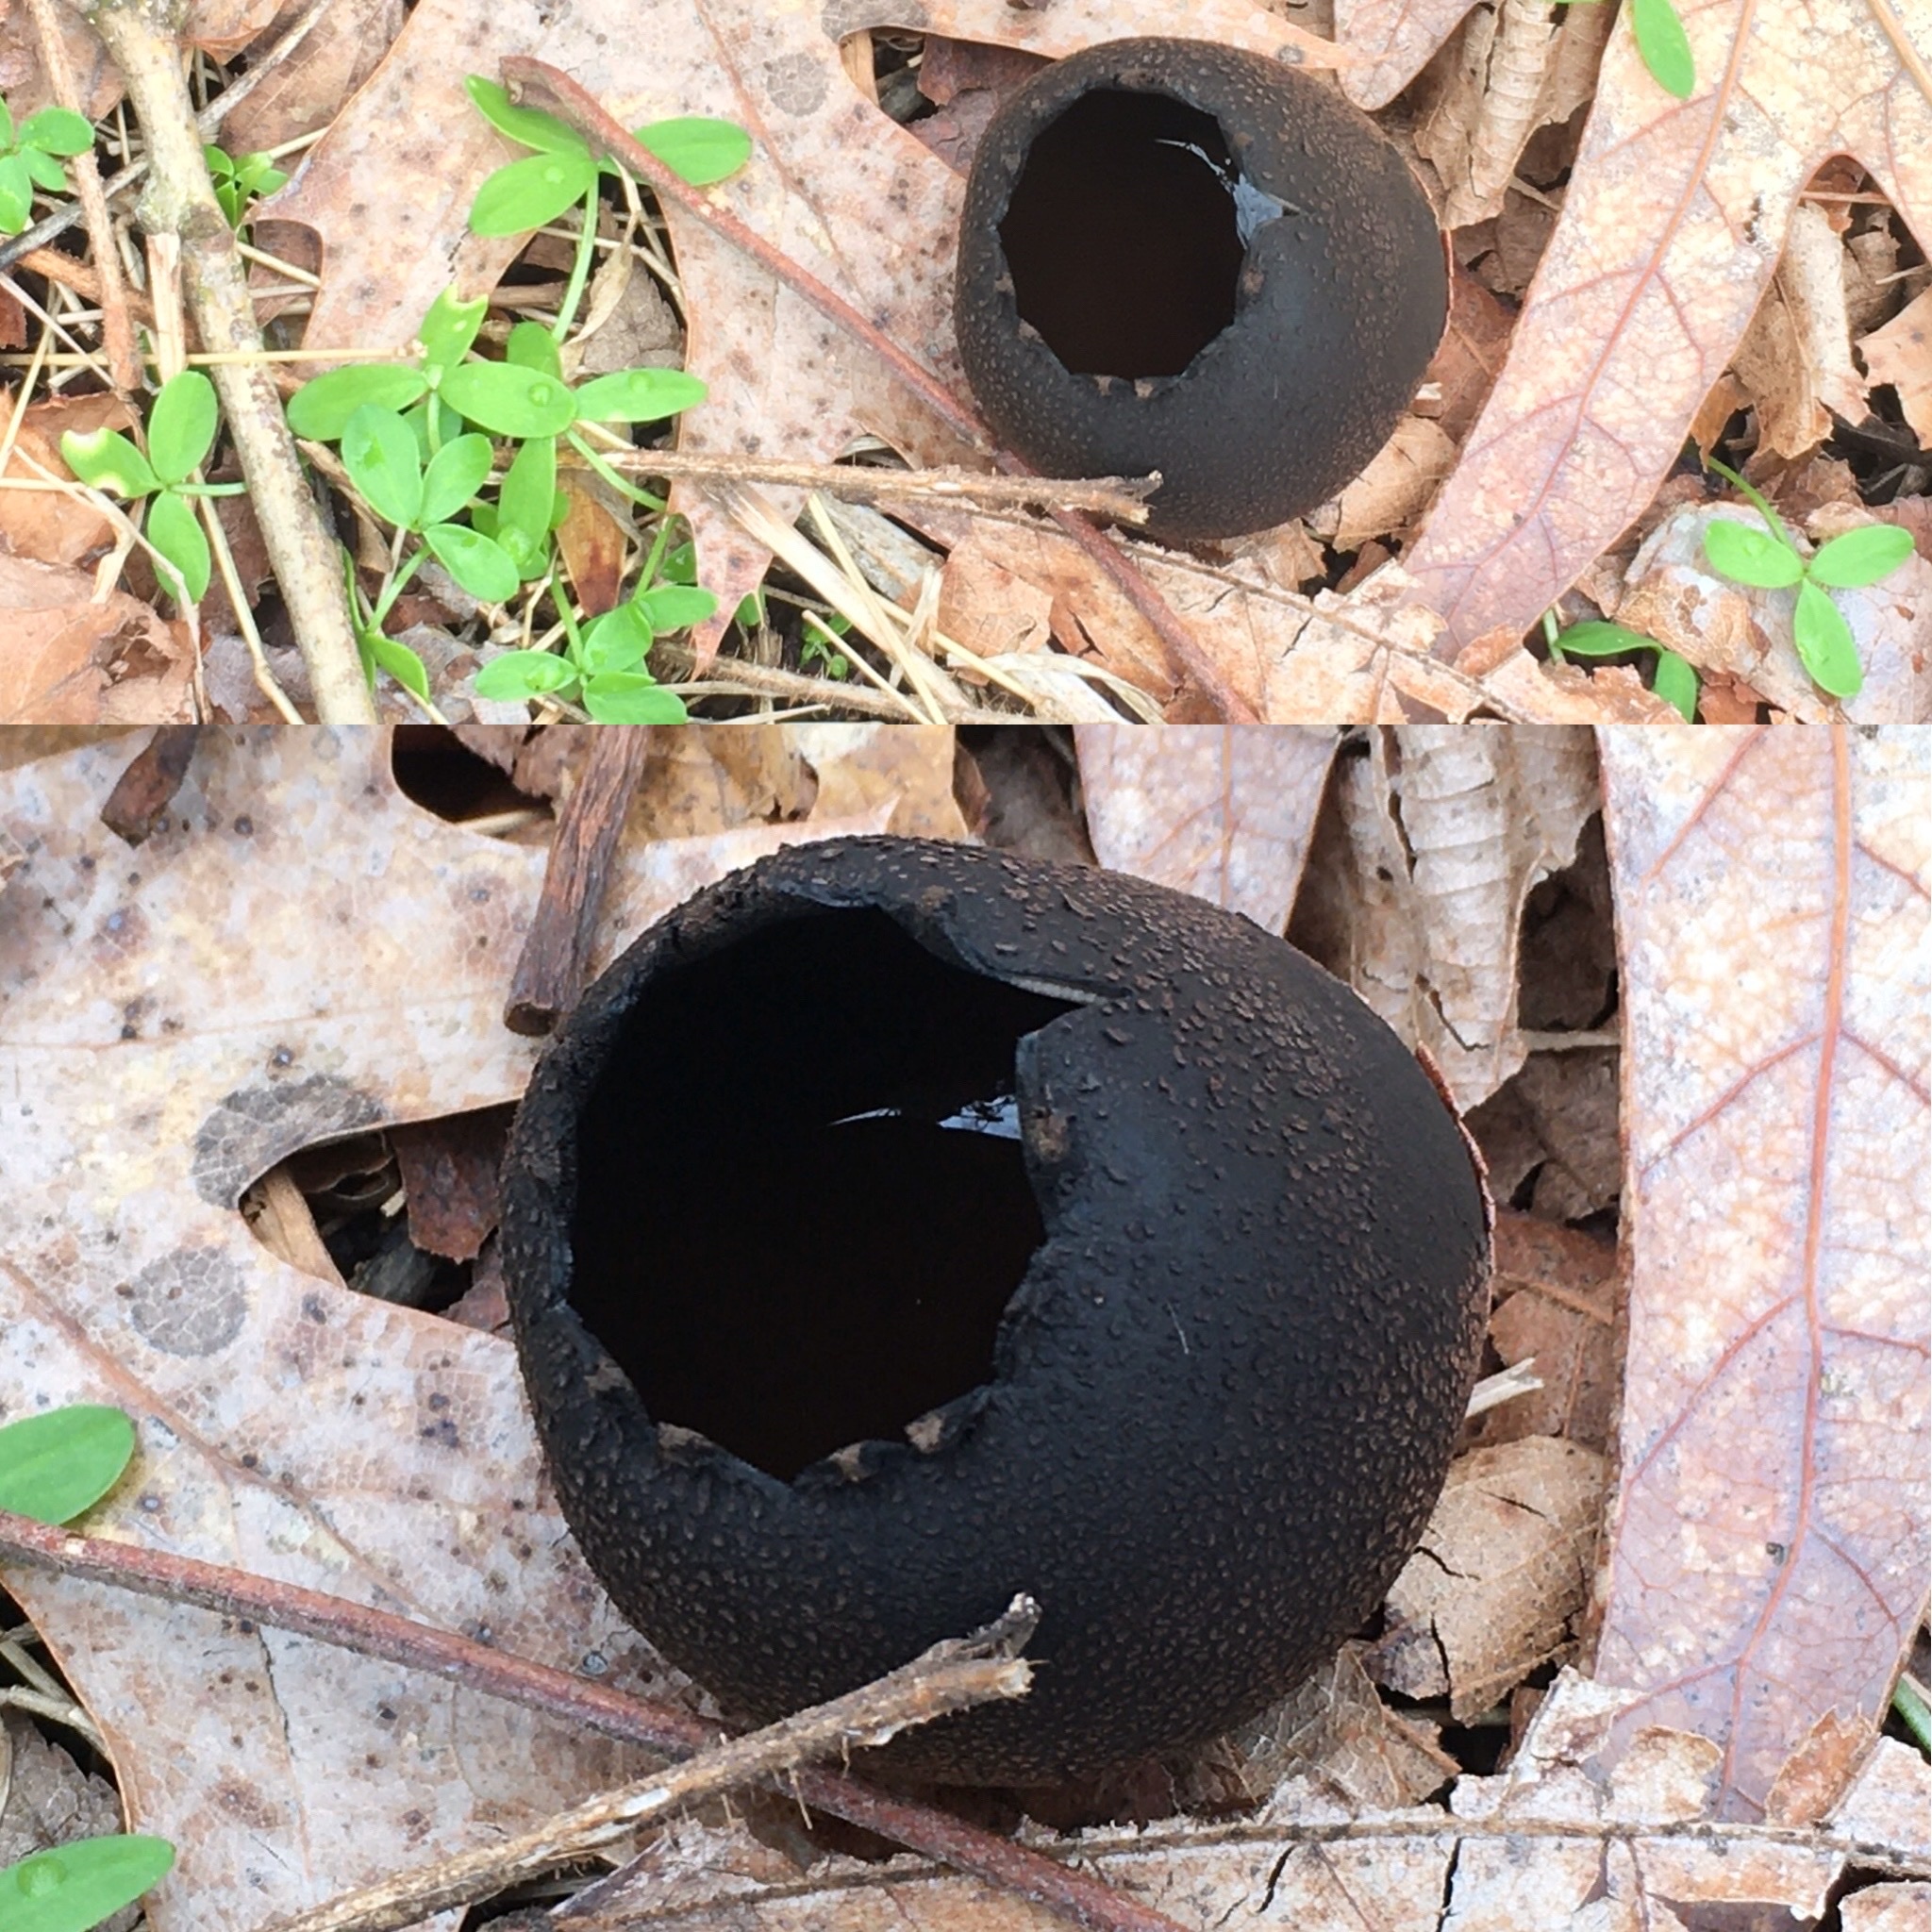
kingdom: Fungi
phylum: Ascomycota
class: Pezizomycetes
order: Pezizales
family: Sarcosomataceae
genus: Urnula
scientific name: Urnula craterium
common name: Devil's urn
